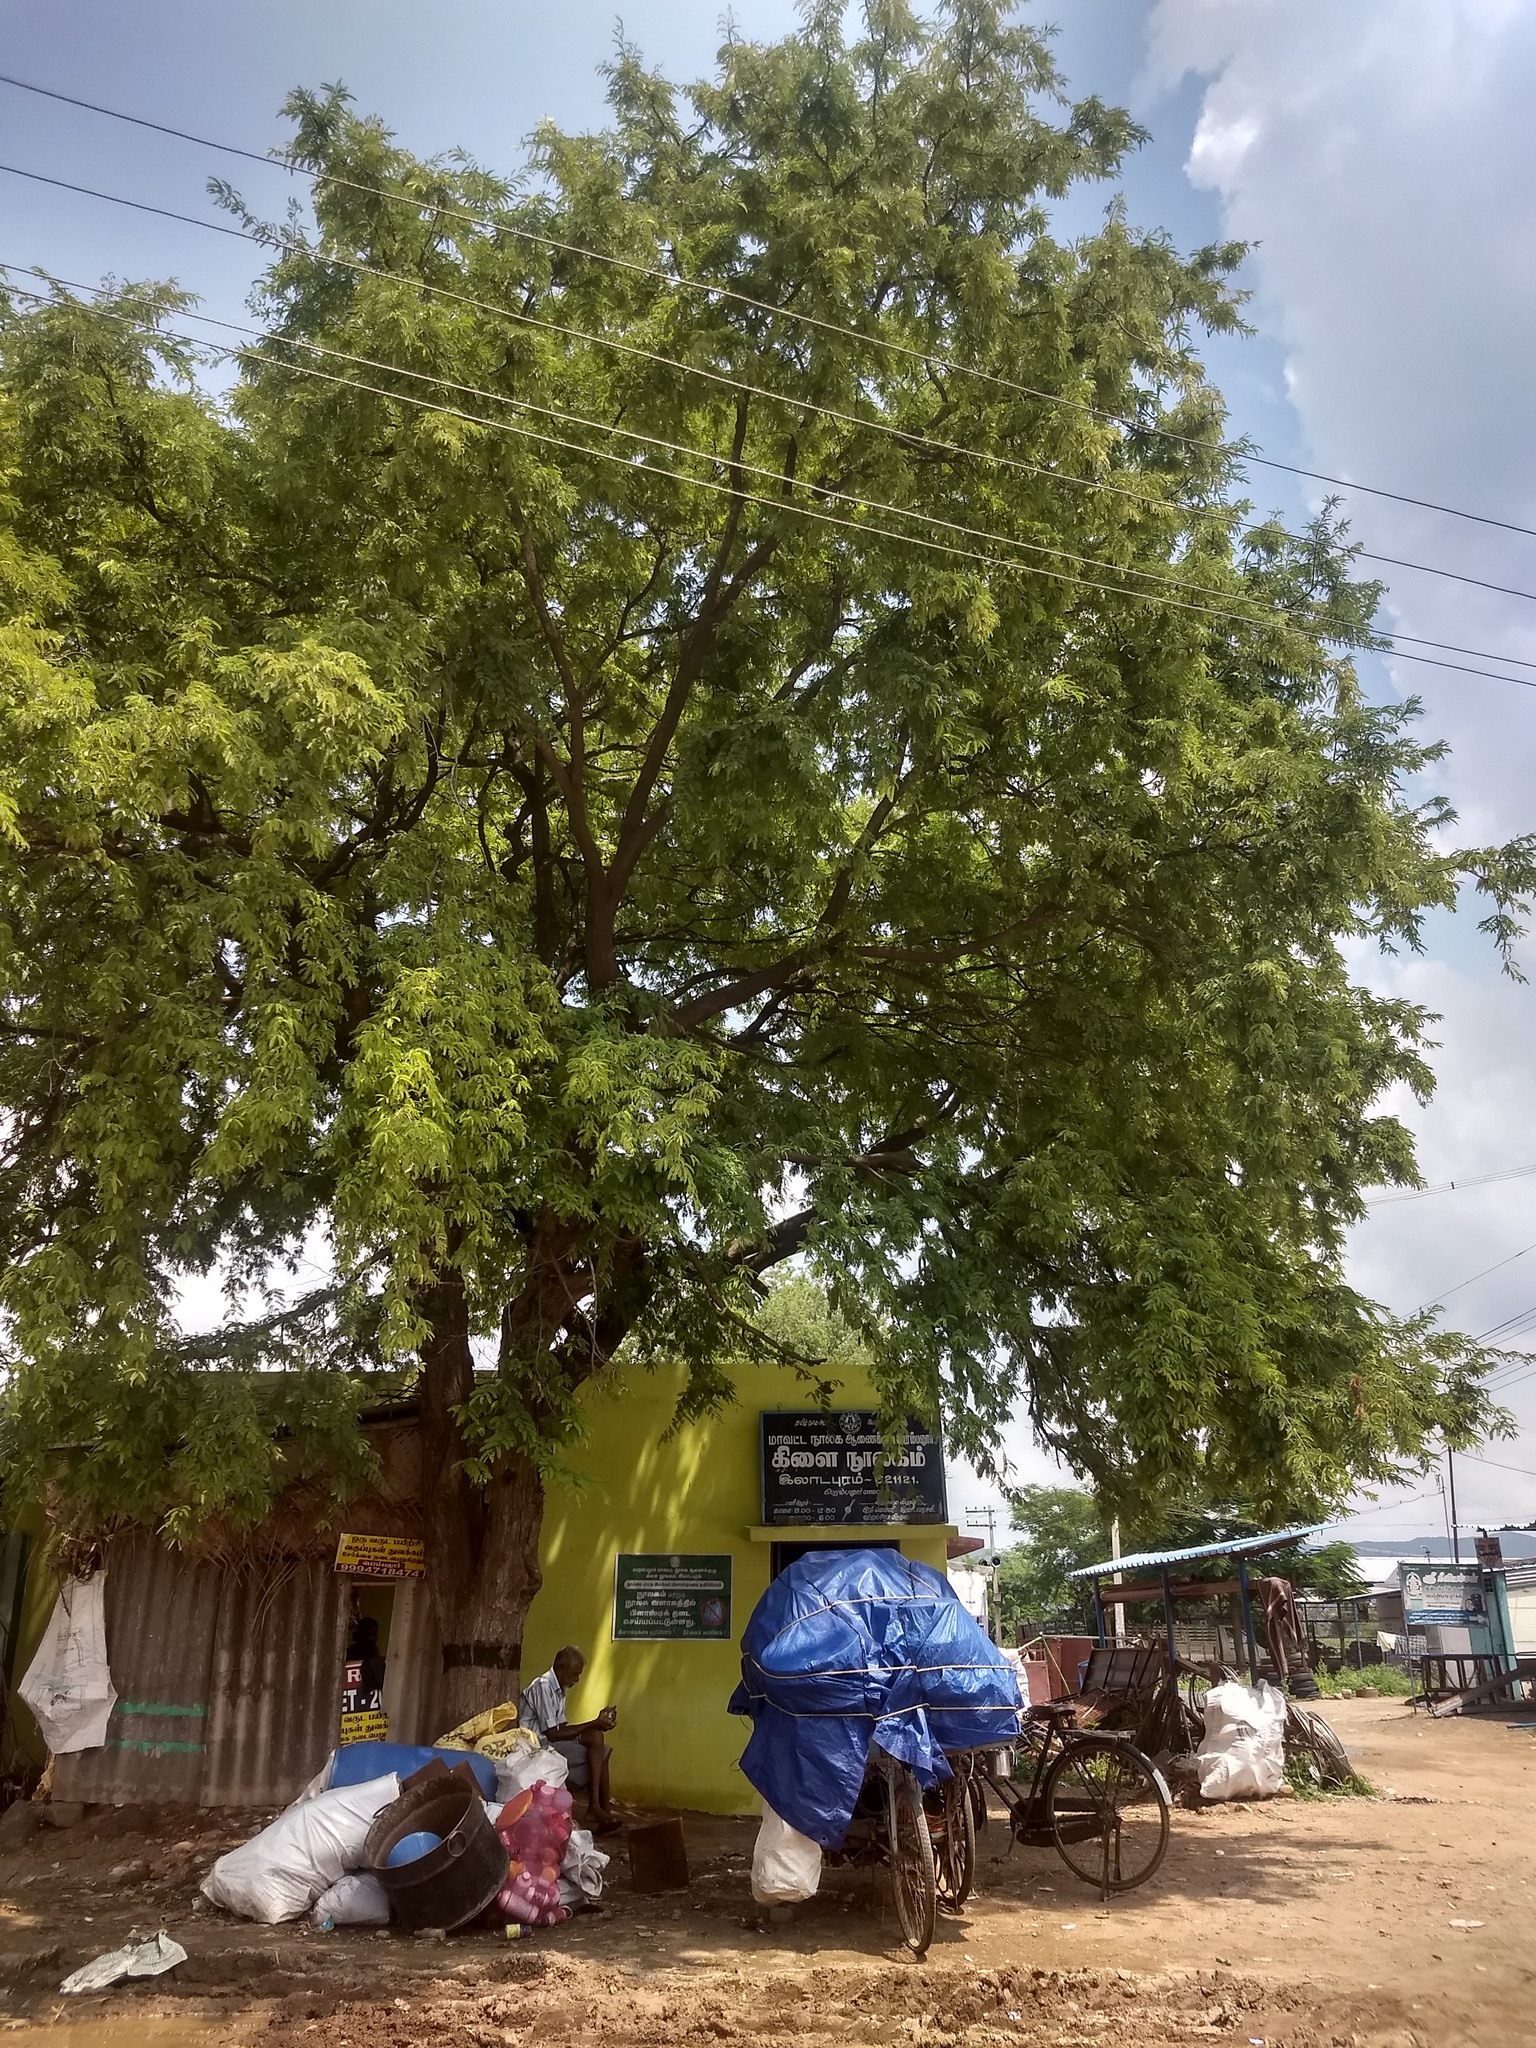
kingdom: Plantae
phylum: Tracheophyta
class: Magnoliopsida
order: Fabales
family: Fabaceae
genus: Tamarindus
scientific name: Tamarindus indica
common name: Tamarind
